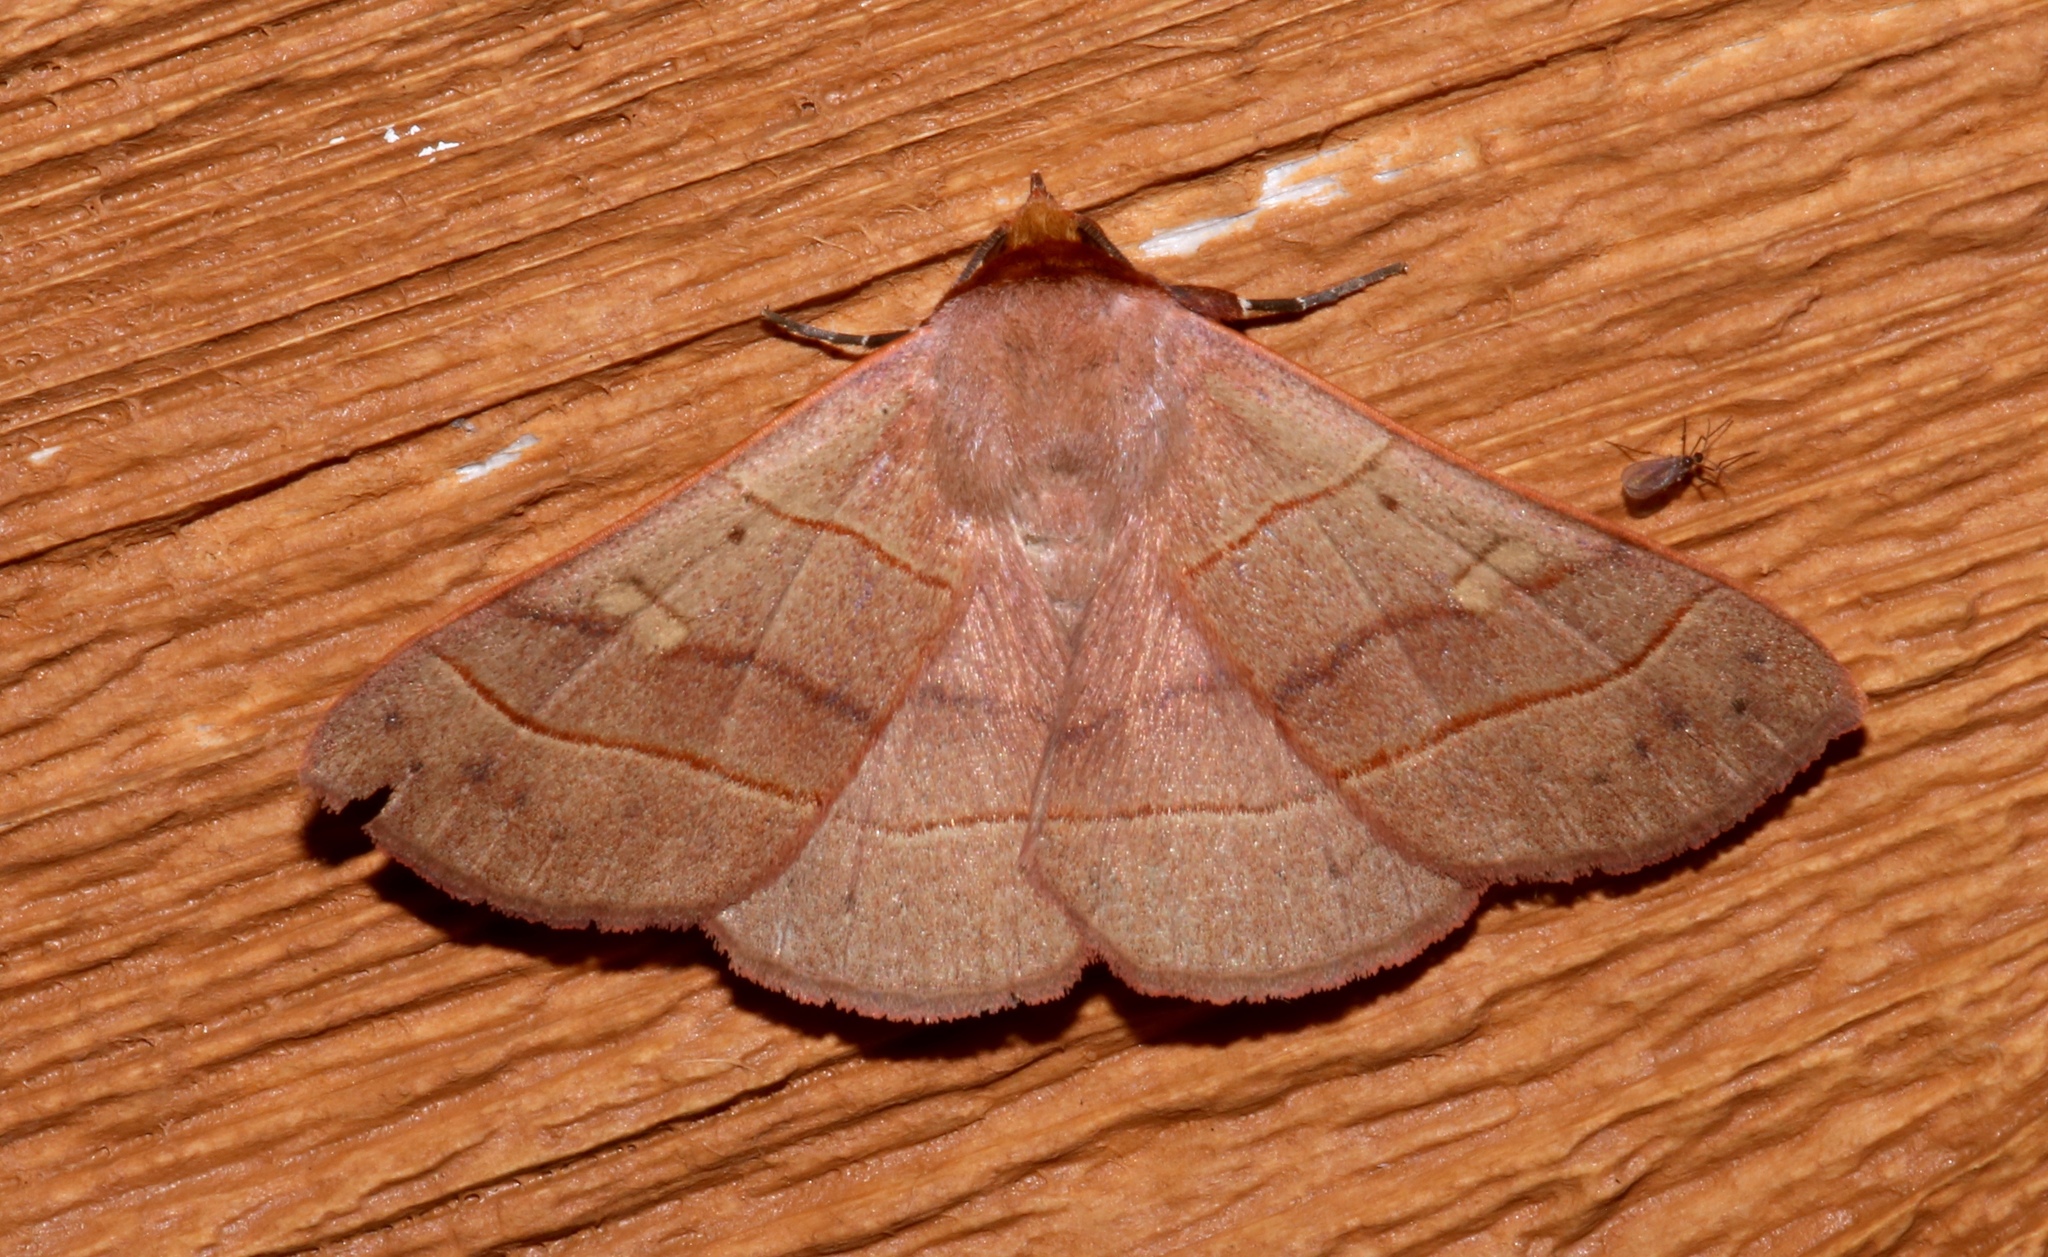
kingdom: Animalia
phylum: Arthropoda
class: Insecta
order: Lepidoptera
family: Erebidae
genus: Panopoda
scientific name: Panopoda rufimargo
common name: Red-lined panopoda moth
